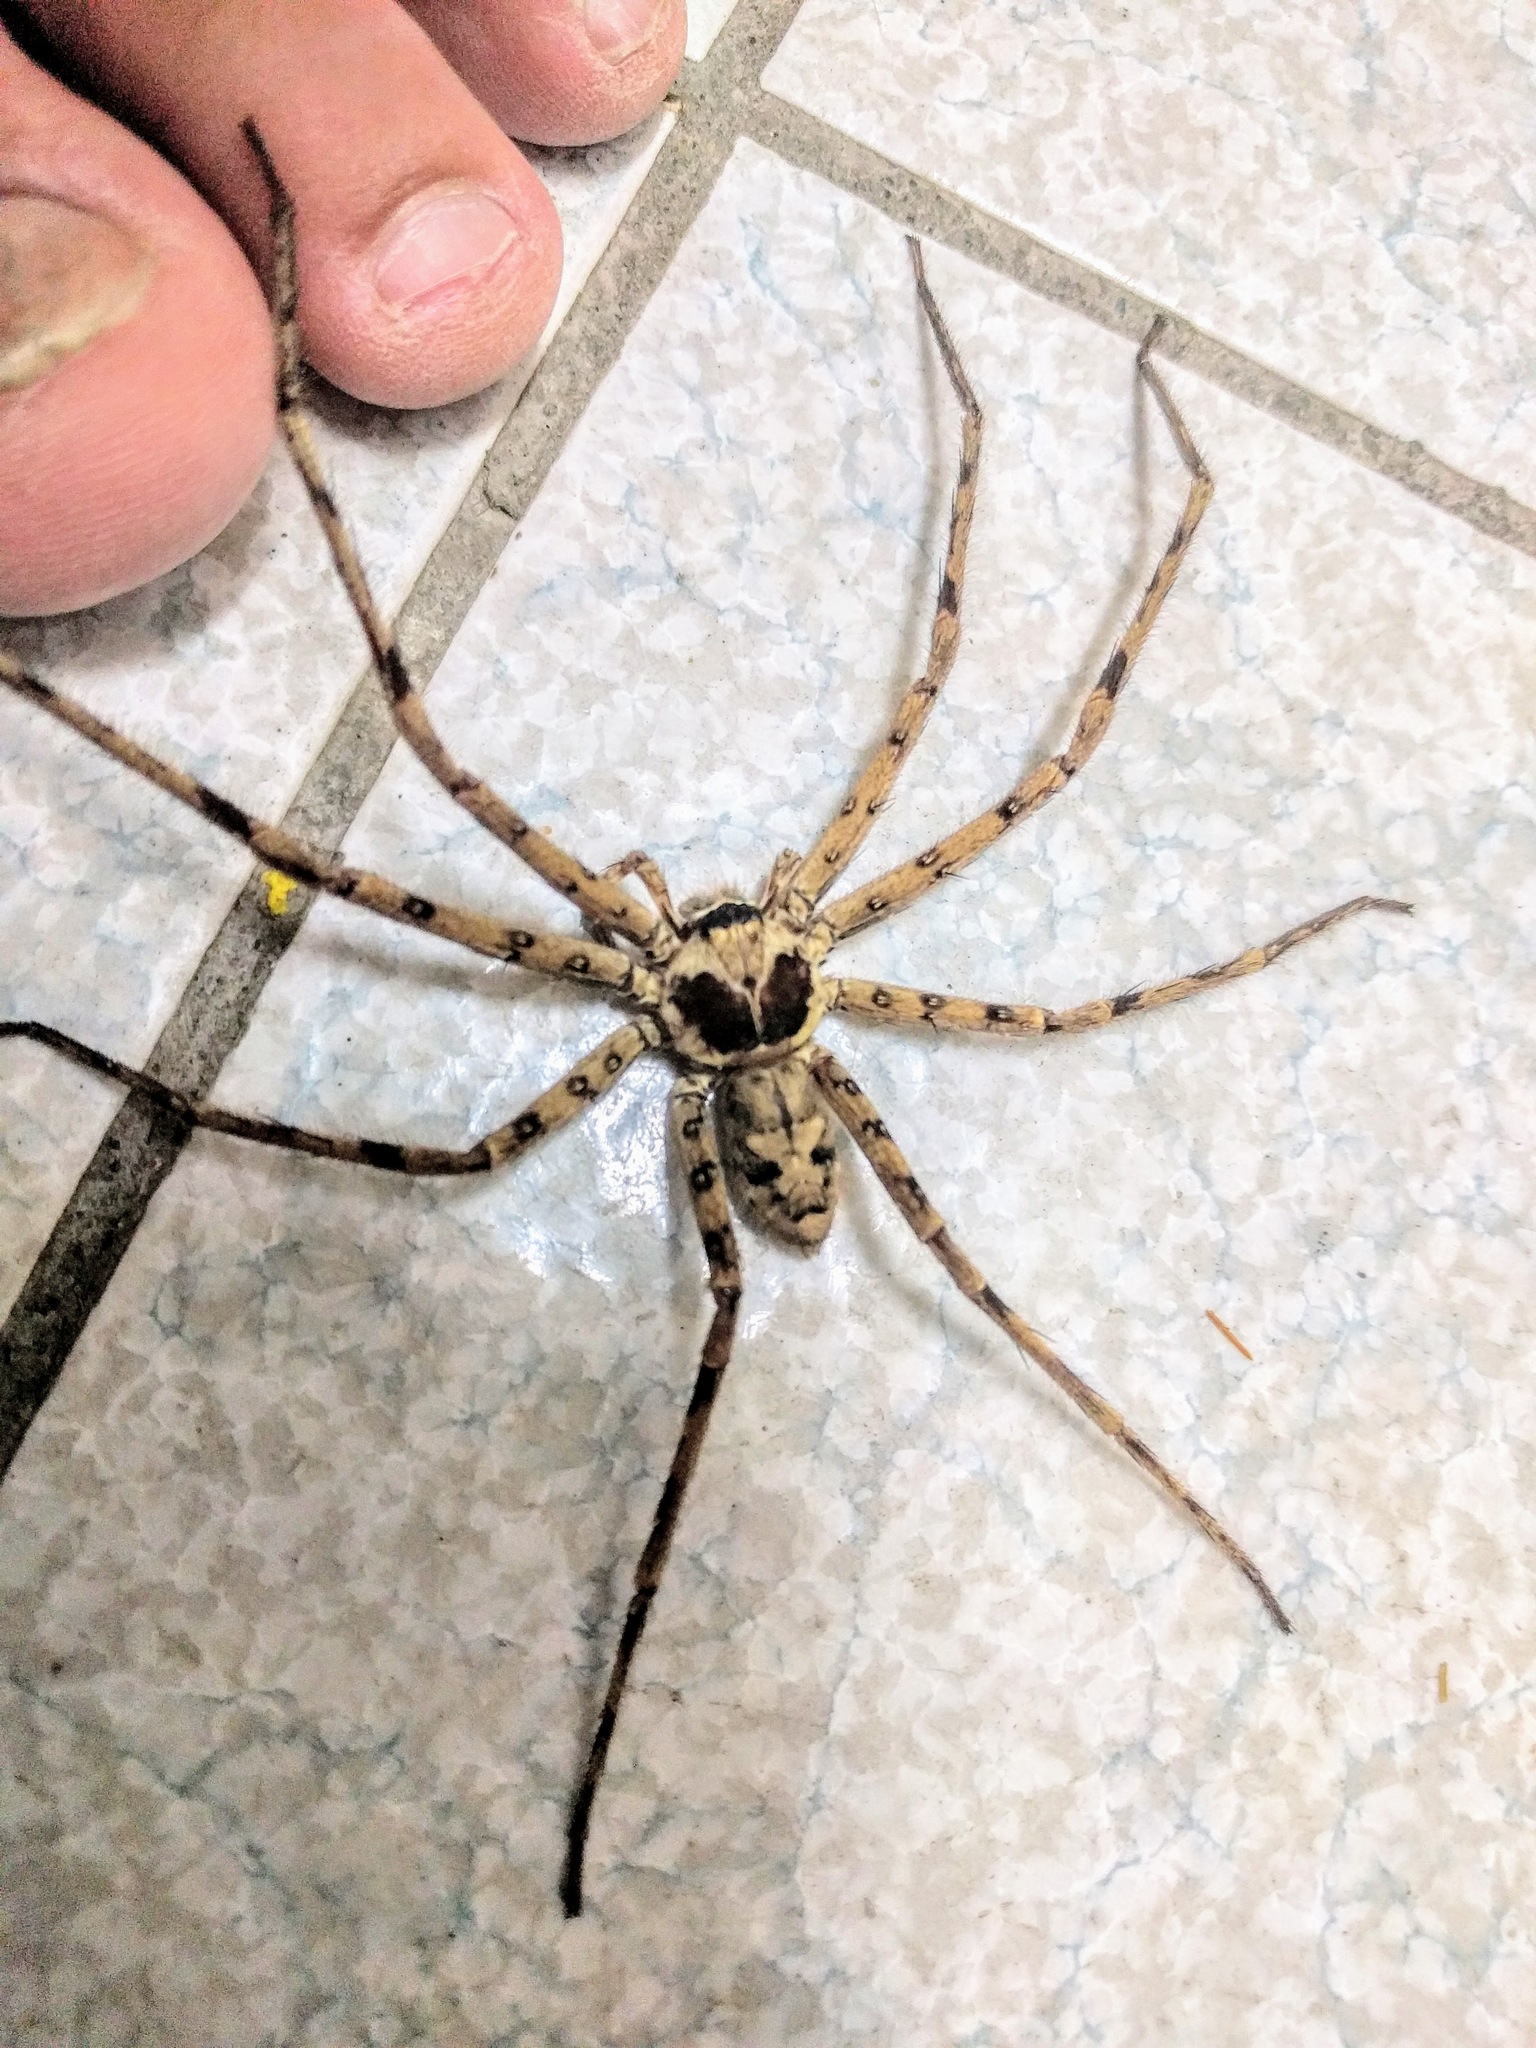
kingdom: Animalia
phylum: Arthropoda
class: Arachnida
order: Araneae
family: Sparassidae
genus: Heteropoda
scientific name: Heteropoda venatoria
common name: Huntsman spider
